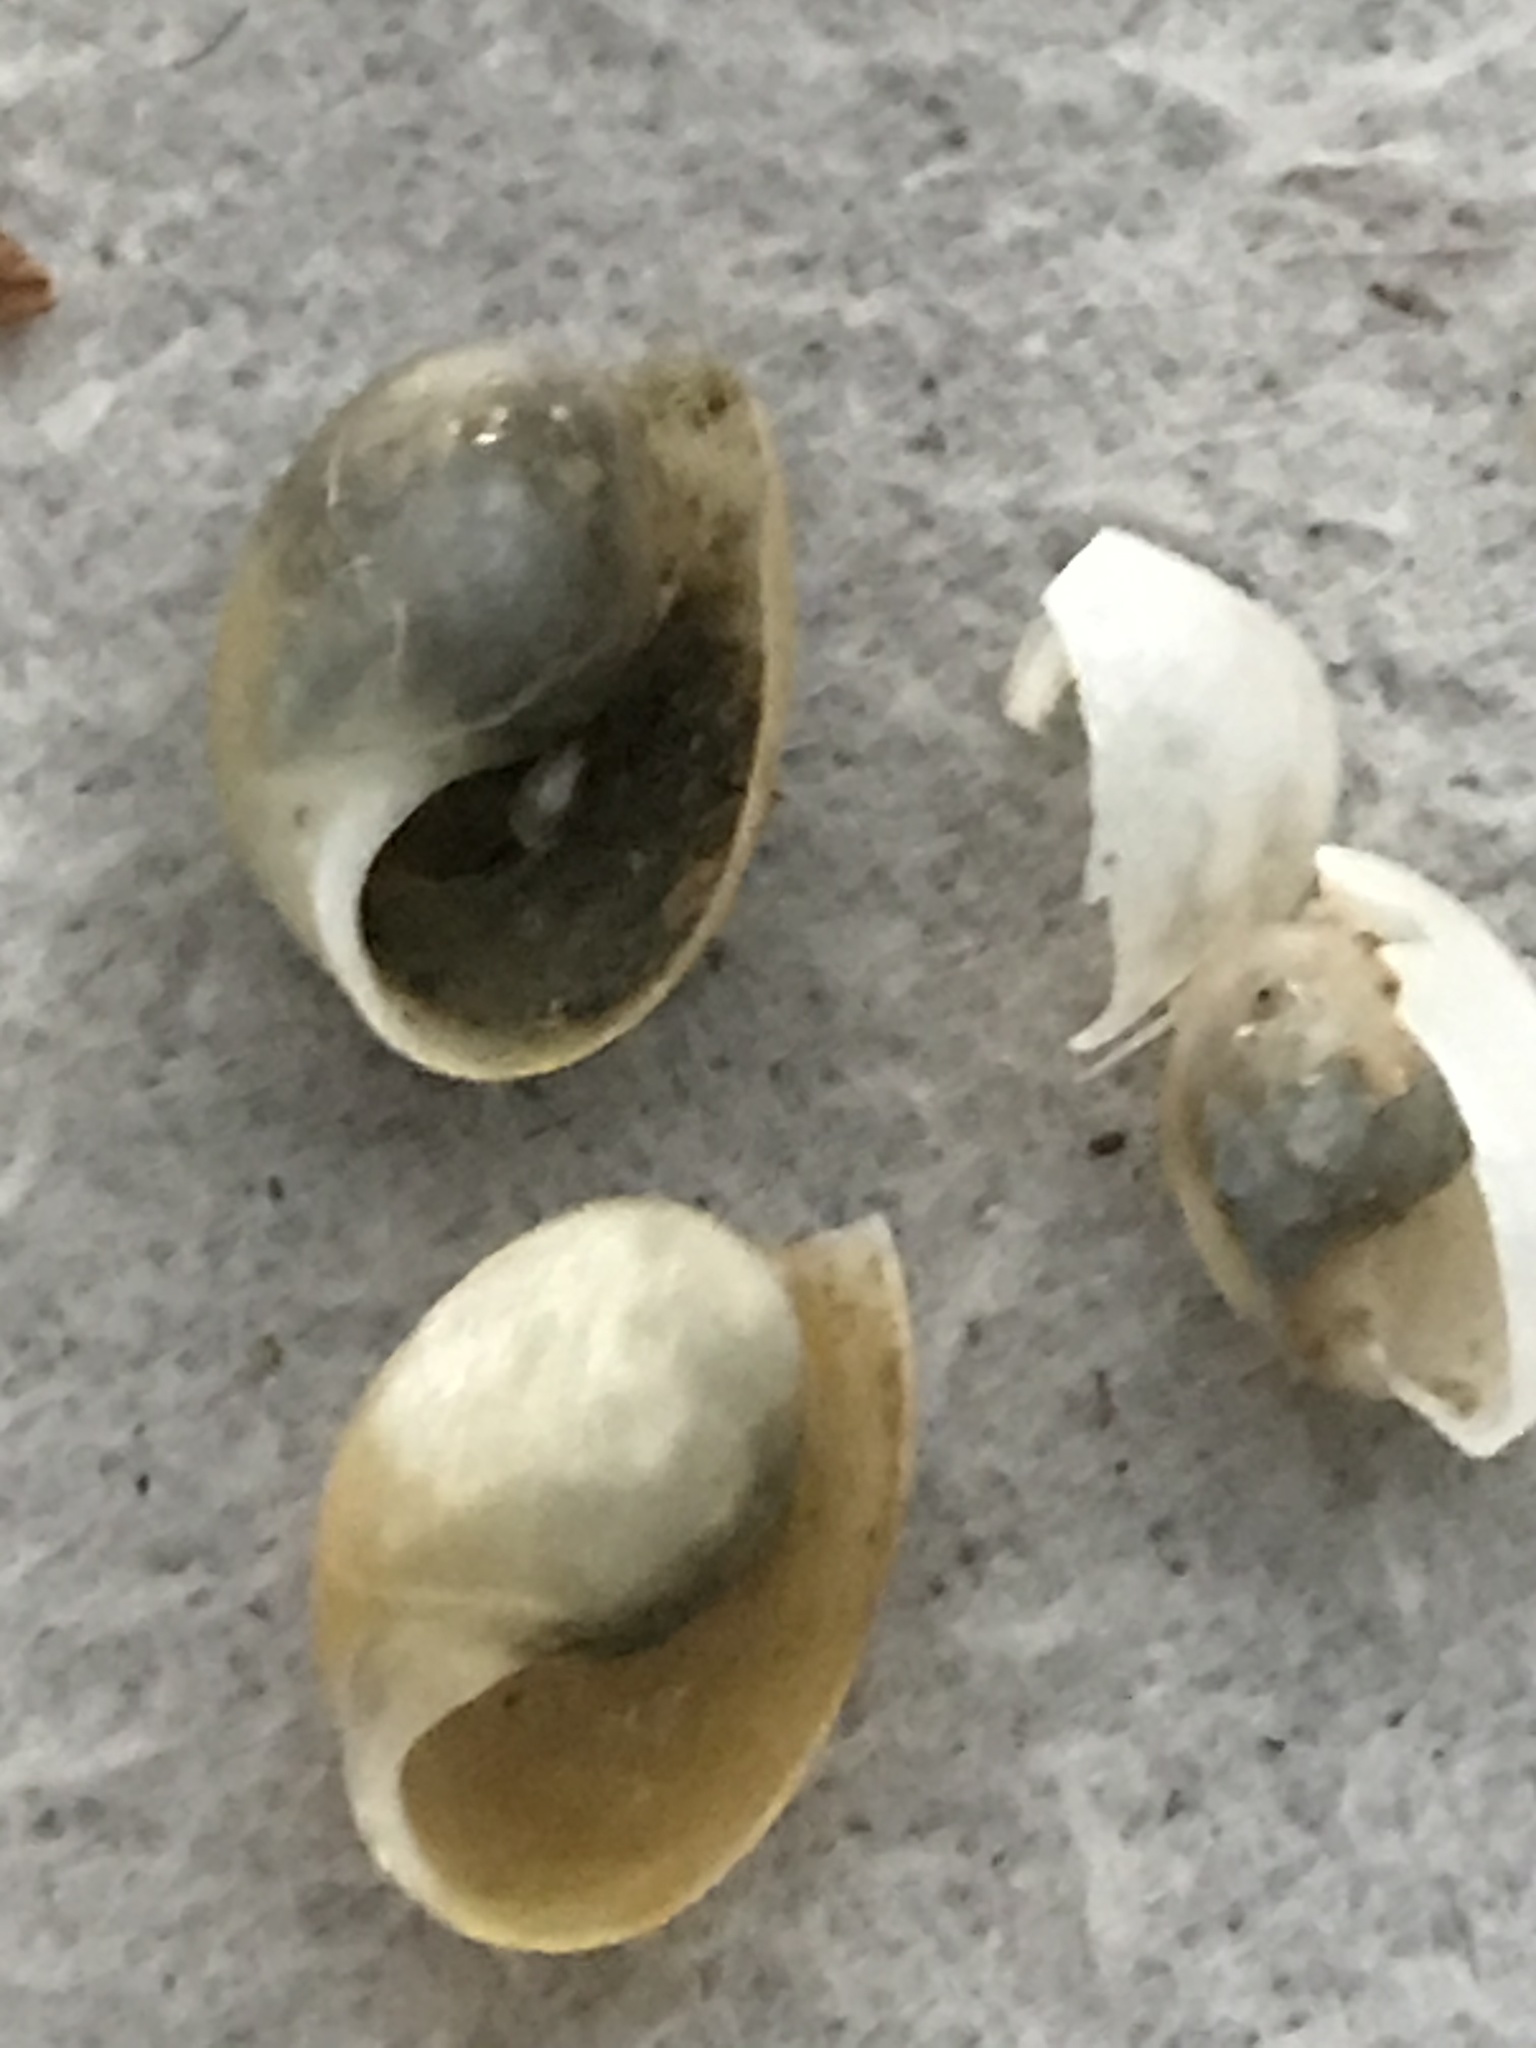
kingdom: Animalia
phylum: Mollusca
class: Gastropoda
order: Cephalaspidea
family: Haminoeidae
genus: Haloa
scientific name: Haloa japonica
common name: Japanese bubble snail
